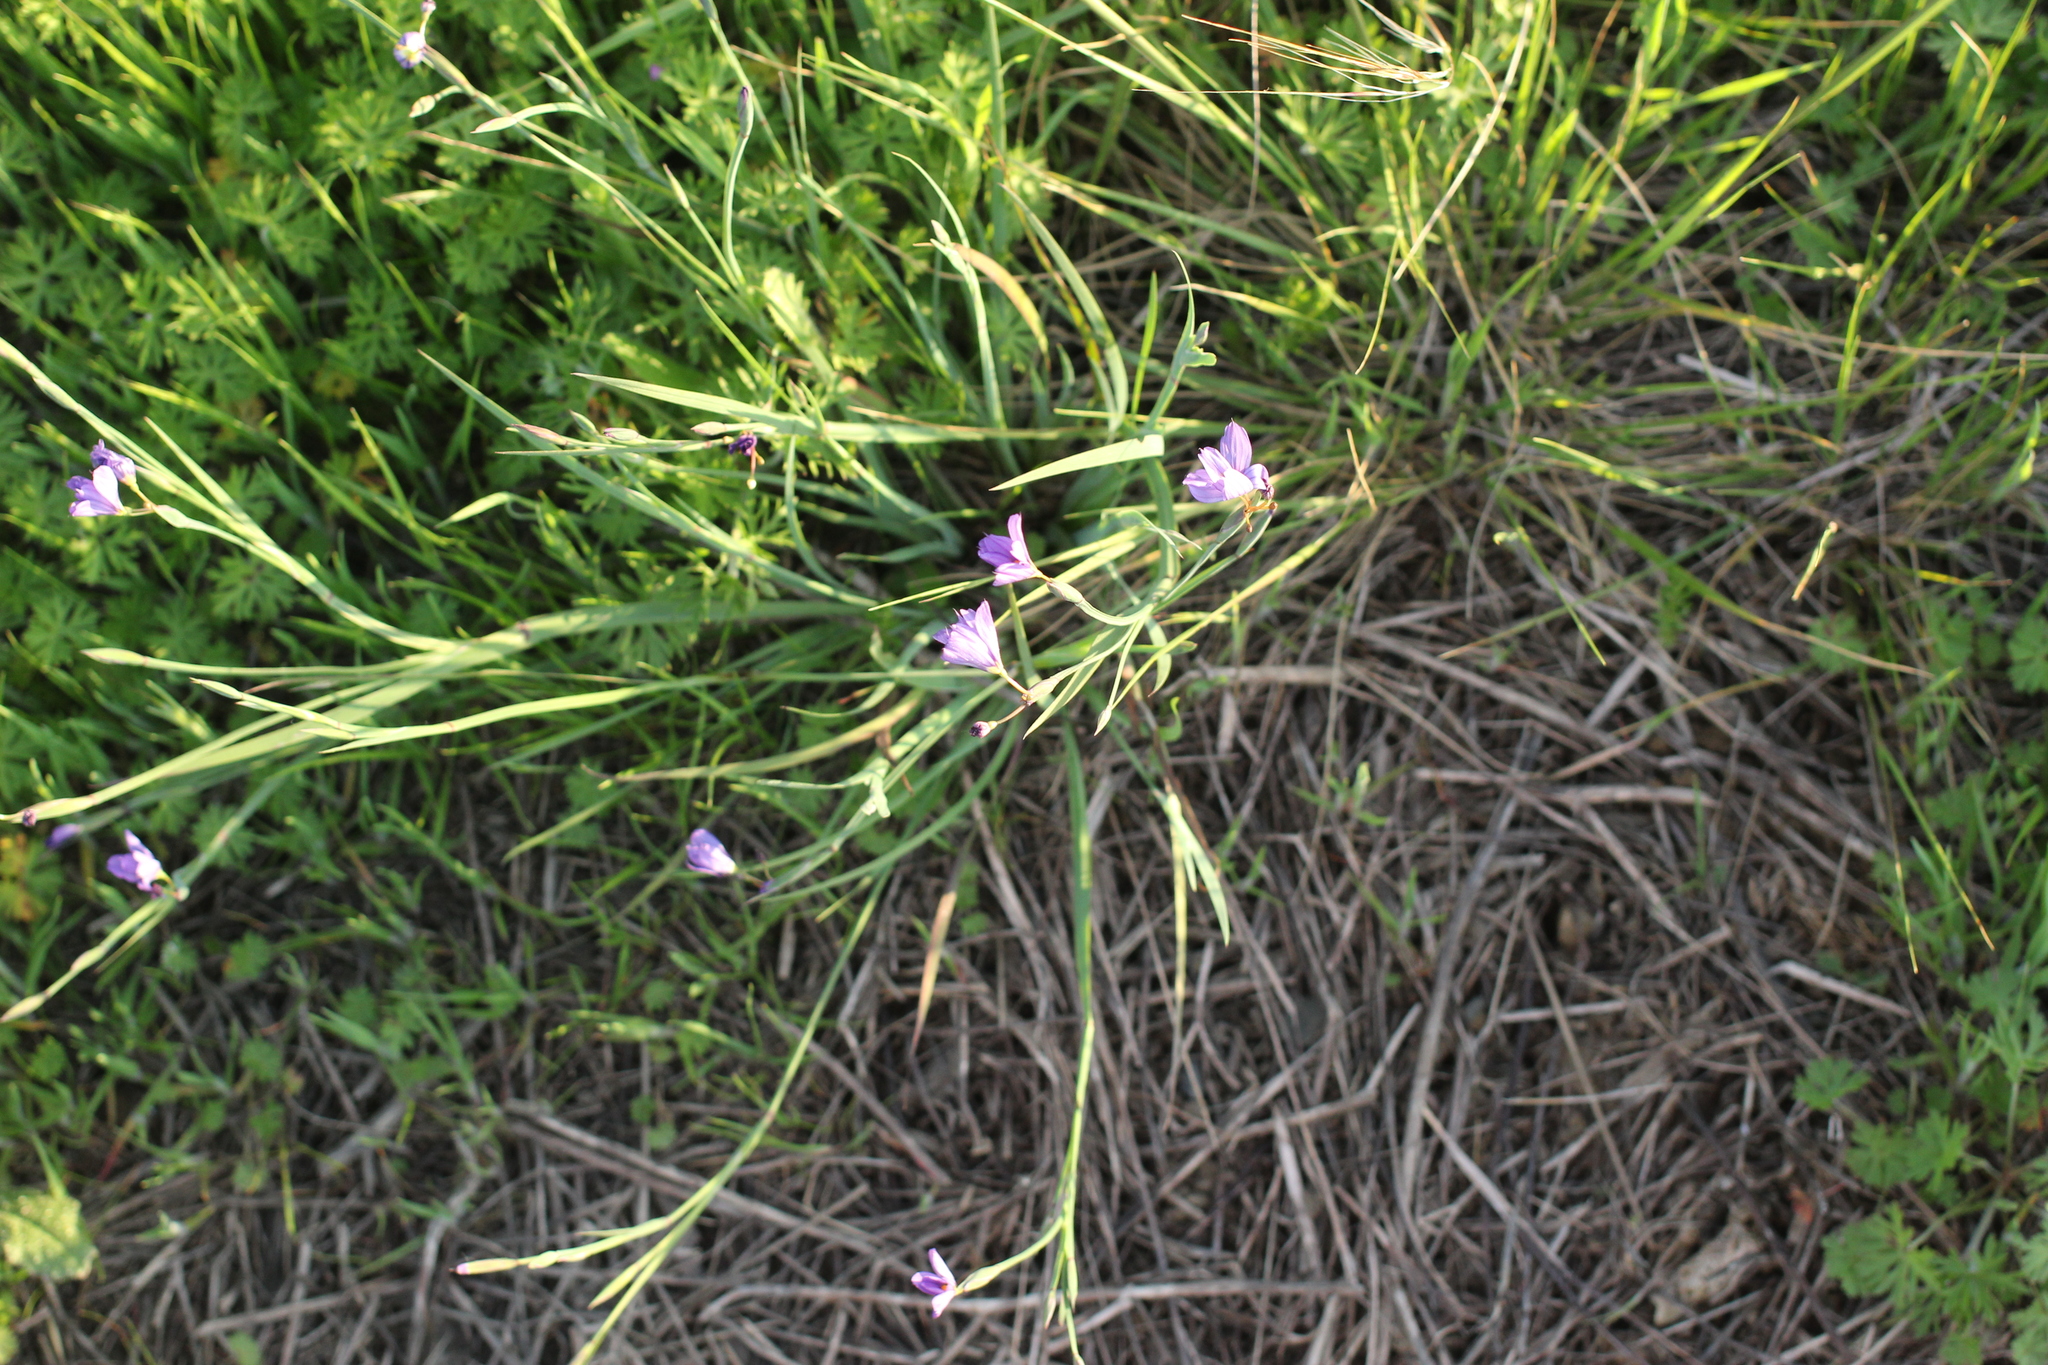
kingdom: Plantae
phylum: Tracheophyta
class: Liliopsida
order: Asparagales
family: Iridaceae
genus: Sisyrinchium
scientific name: Sisyrinchium bellum
